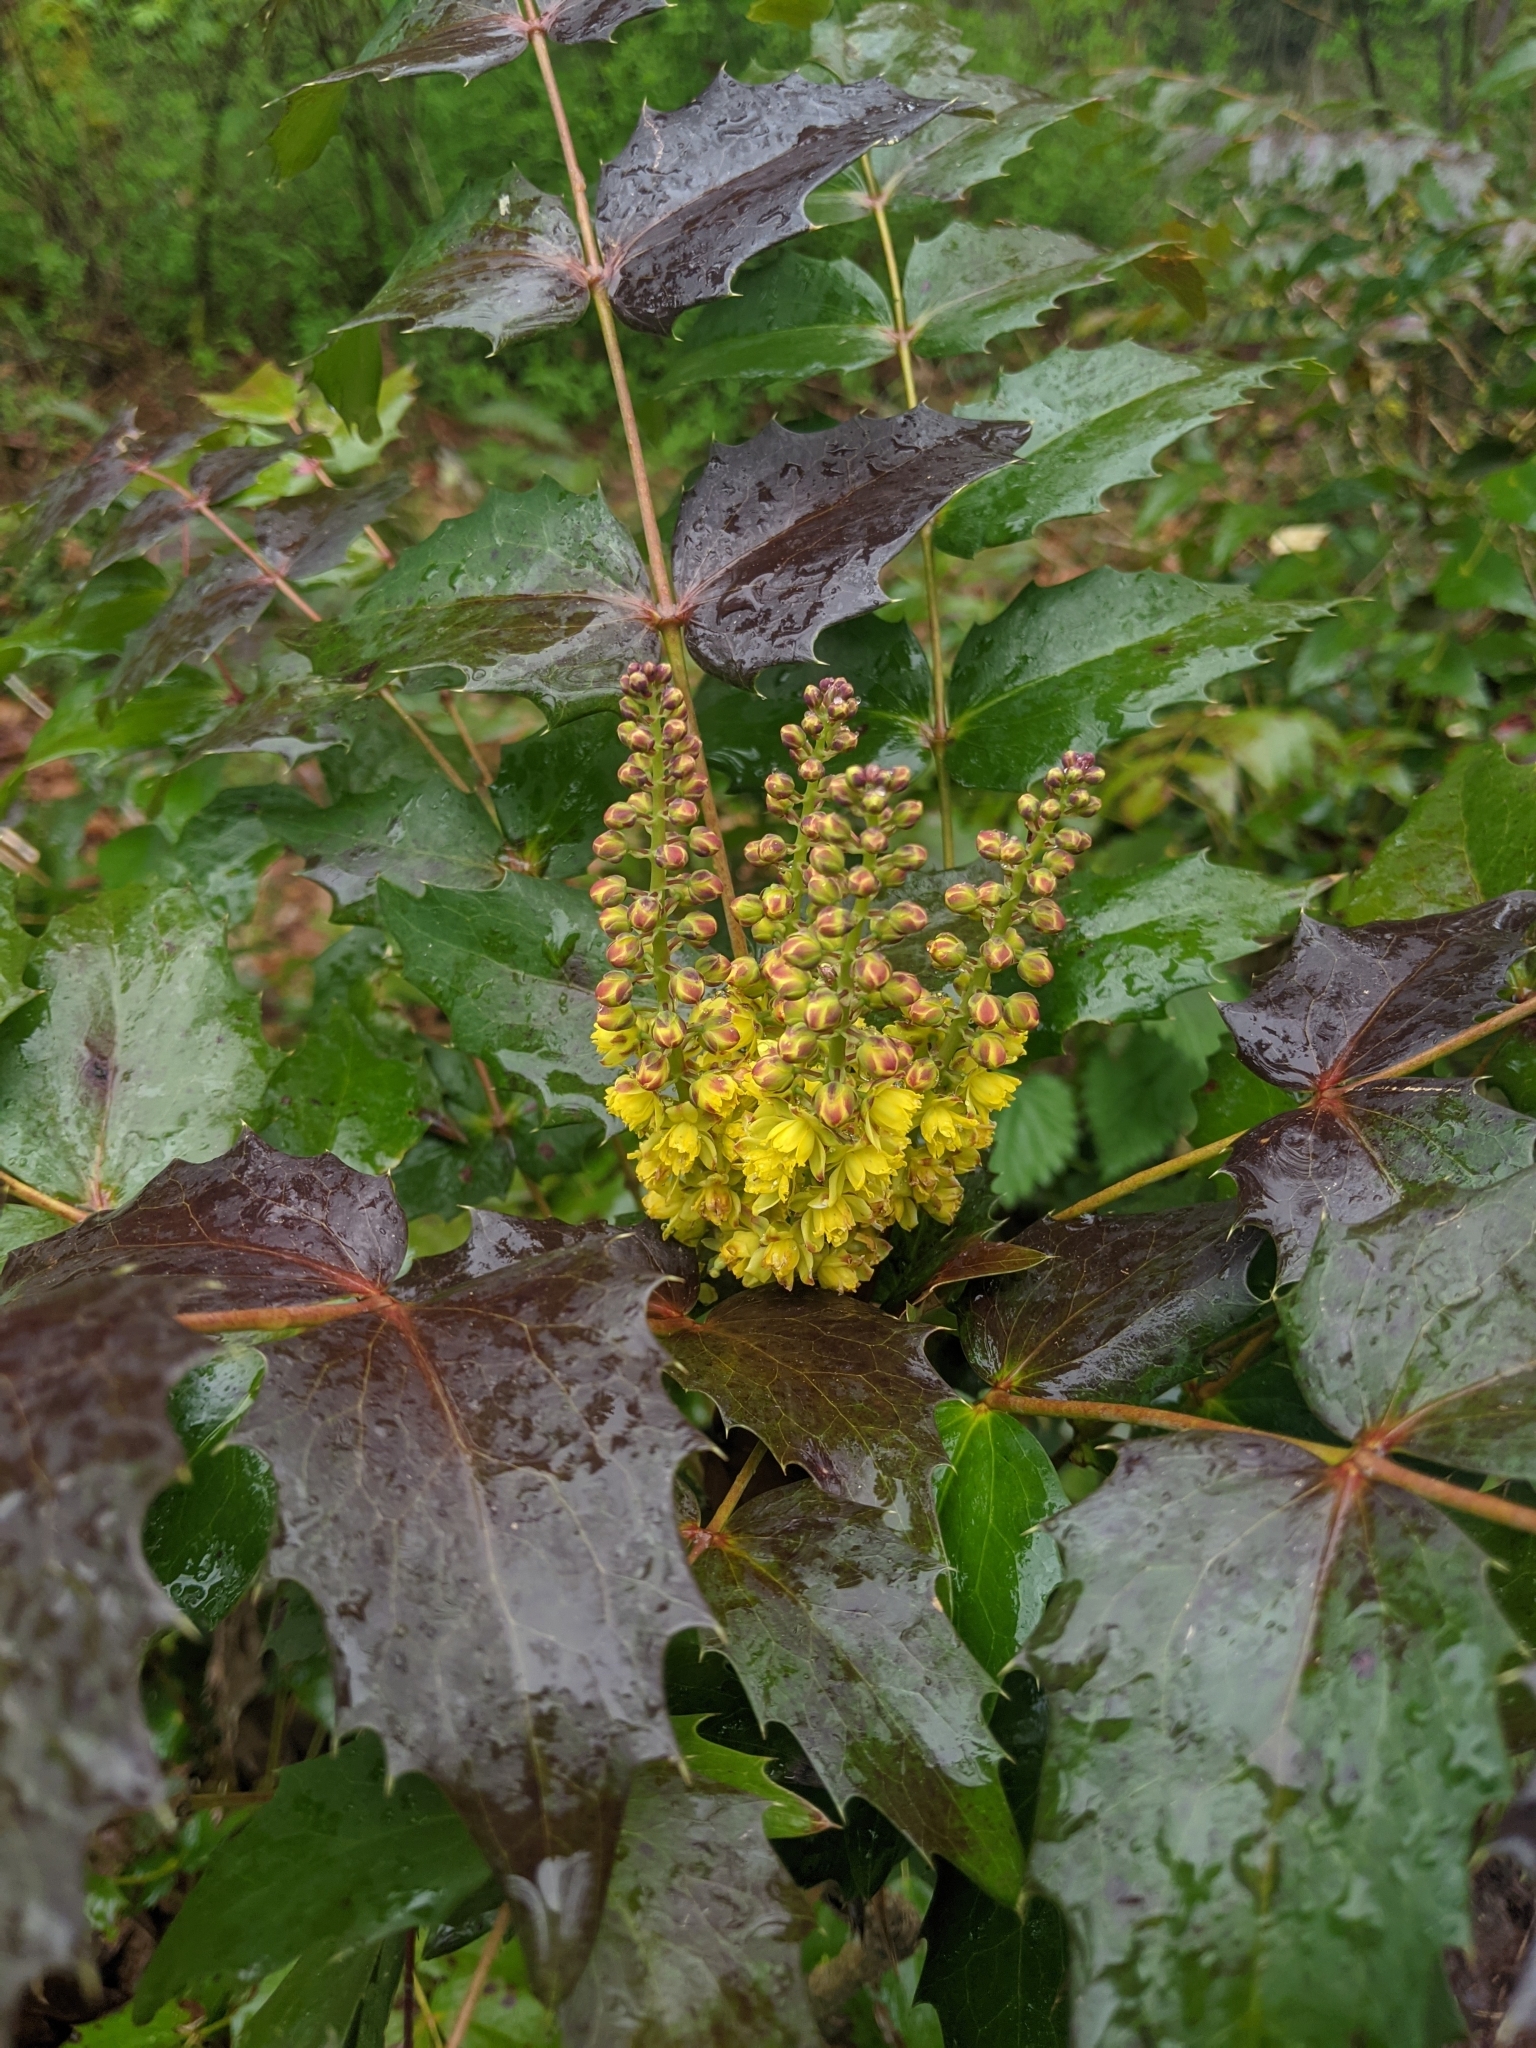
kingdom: Plantae
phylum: Tracheophyta
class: Magnoliopsida
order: Ranunculales
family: Berberidaceae
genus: Mahonia
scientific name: Mahonia nervosa
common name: Cascade oregon-grape
